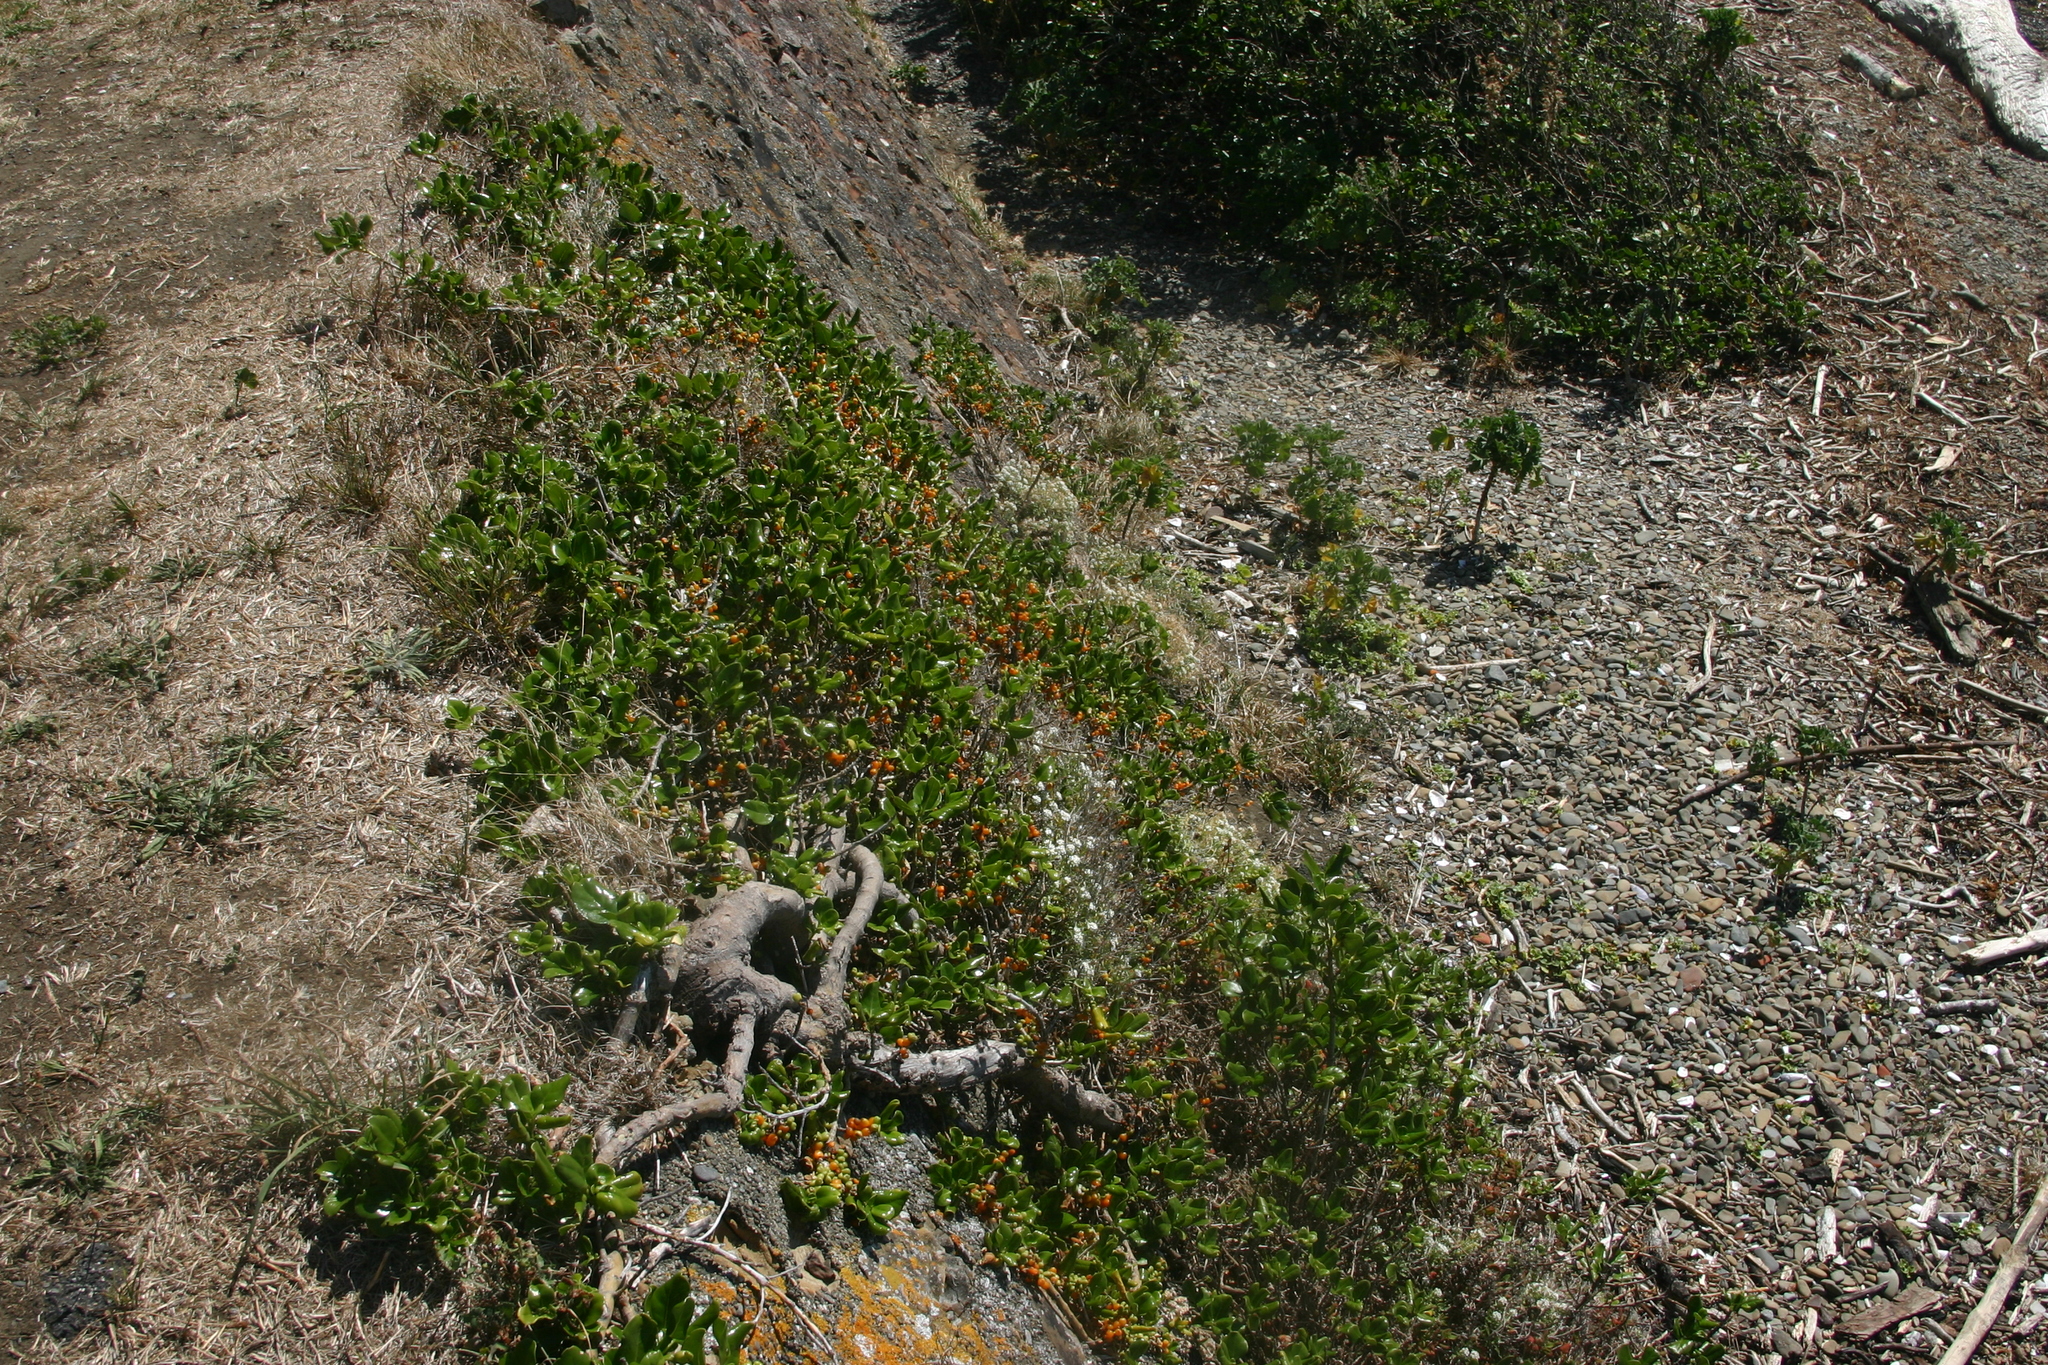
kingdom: Plantae
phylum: Tracheophyta
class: Magnoliopsida
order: Gentianales
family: Rubiaceae
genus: Coprosma
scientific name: Coprosma repens
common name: Tree bedstraw
